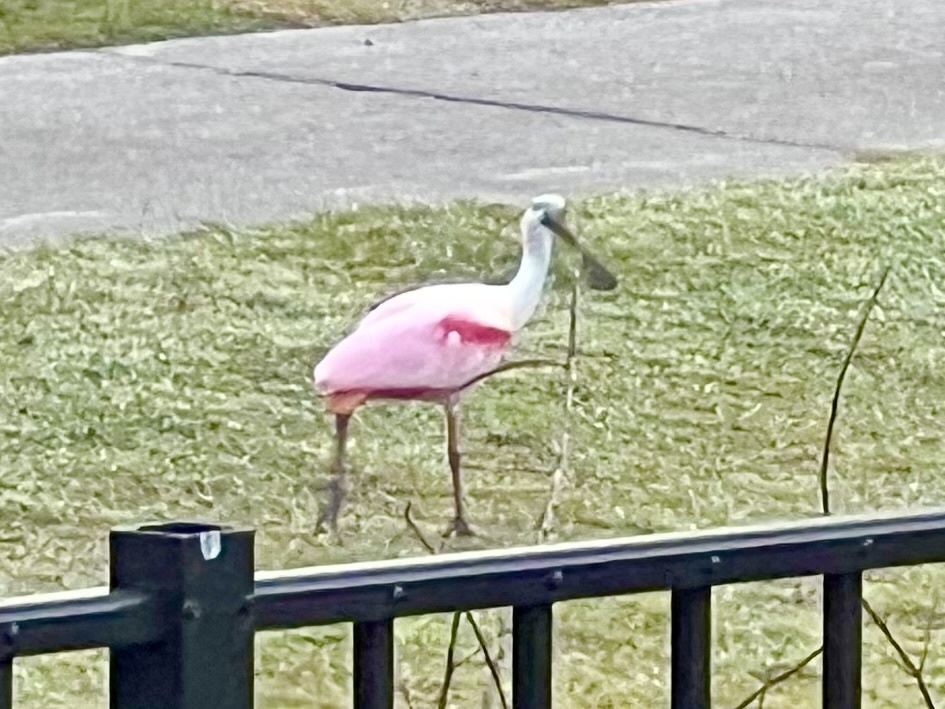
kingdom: Animalia
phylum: Chordata
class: Aves
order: Pelecaniformes
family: Threskiornithidae
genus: Platalea
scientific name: Platalea ajaja
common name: Roseate spoonbill
